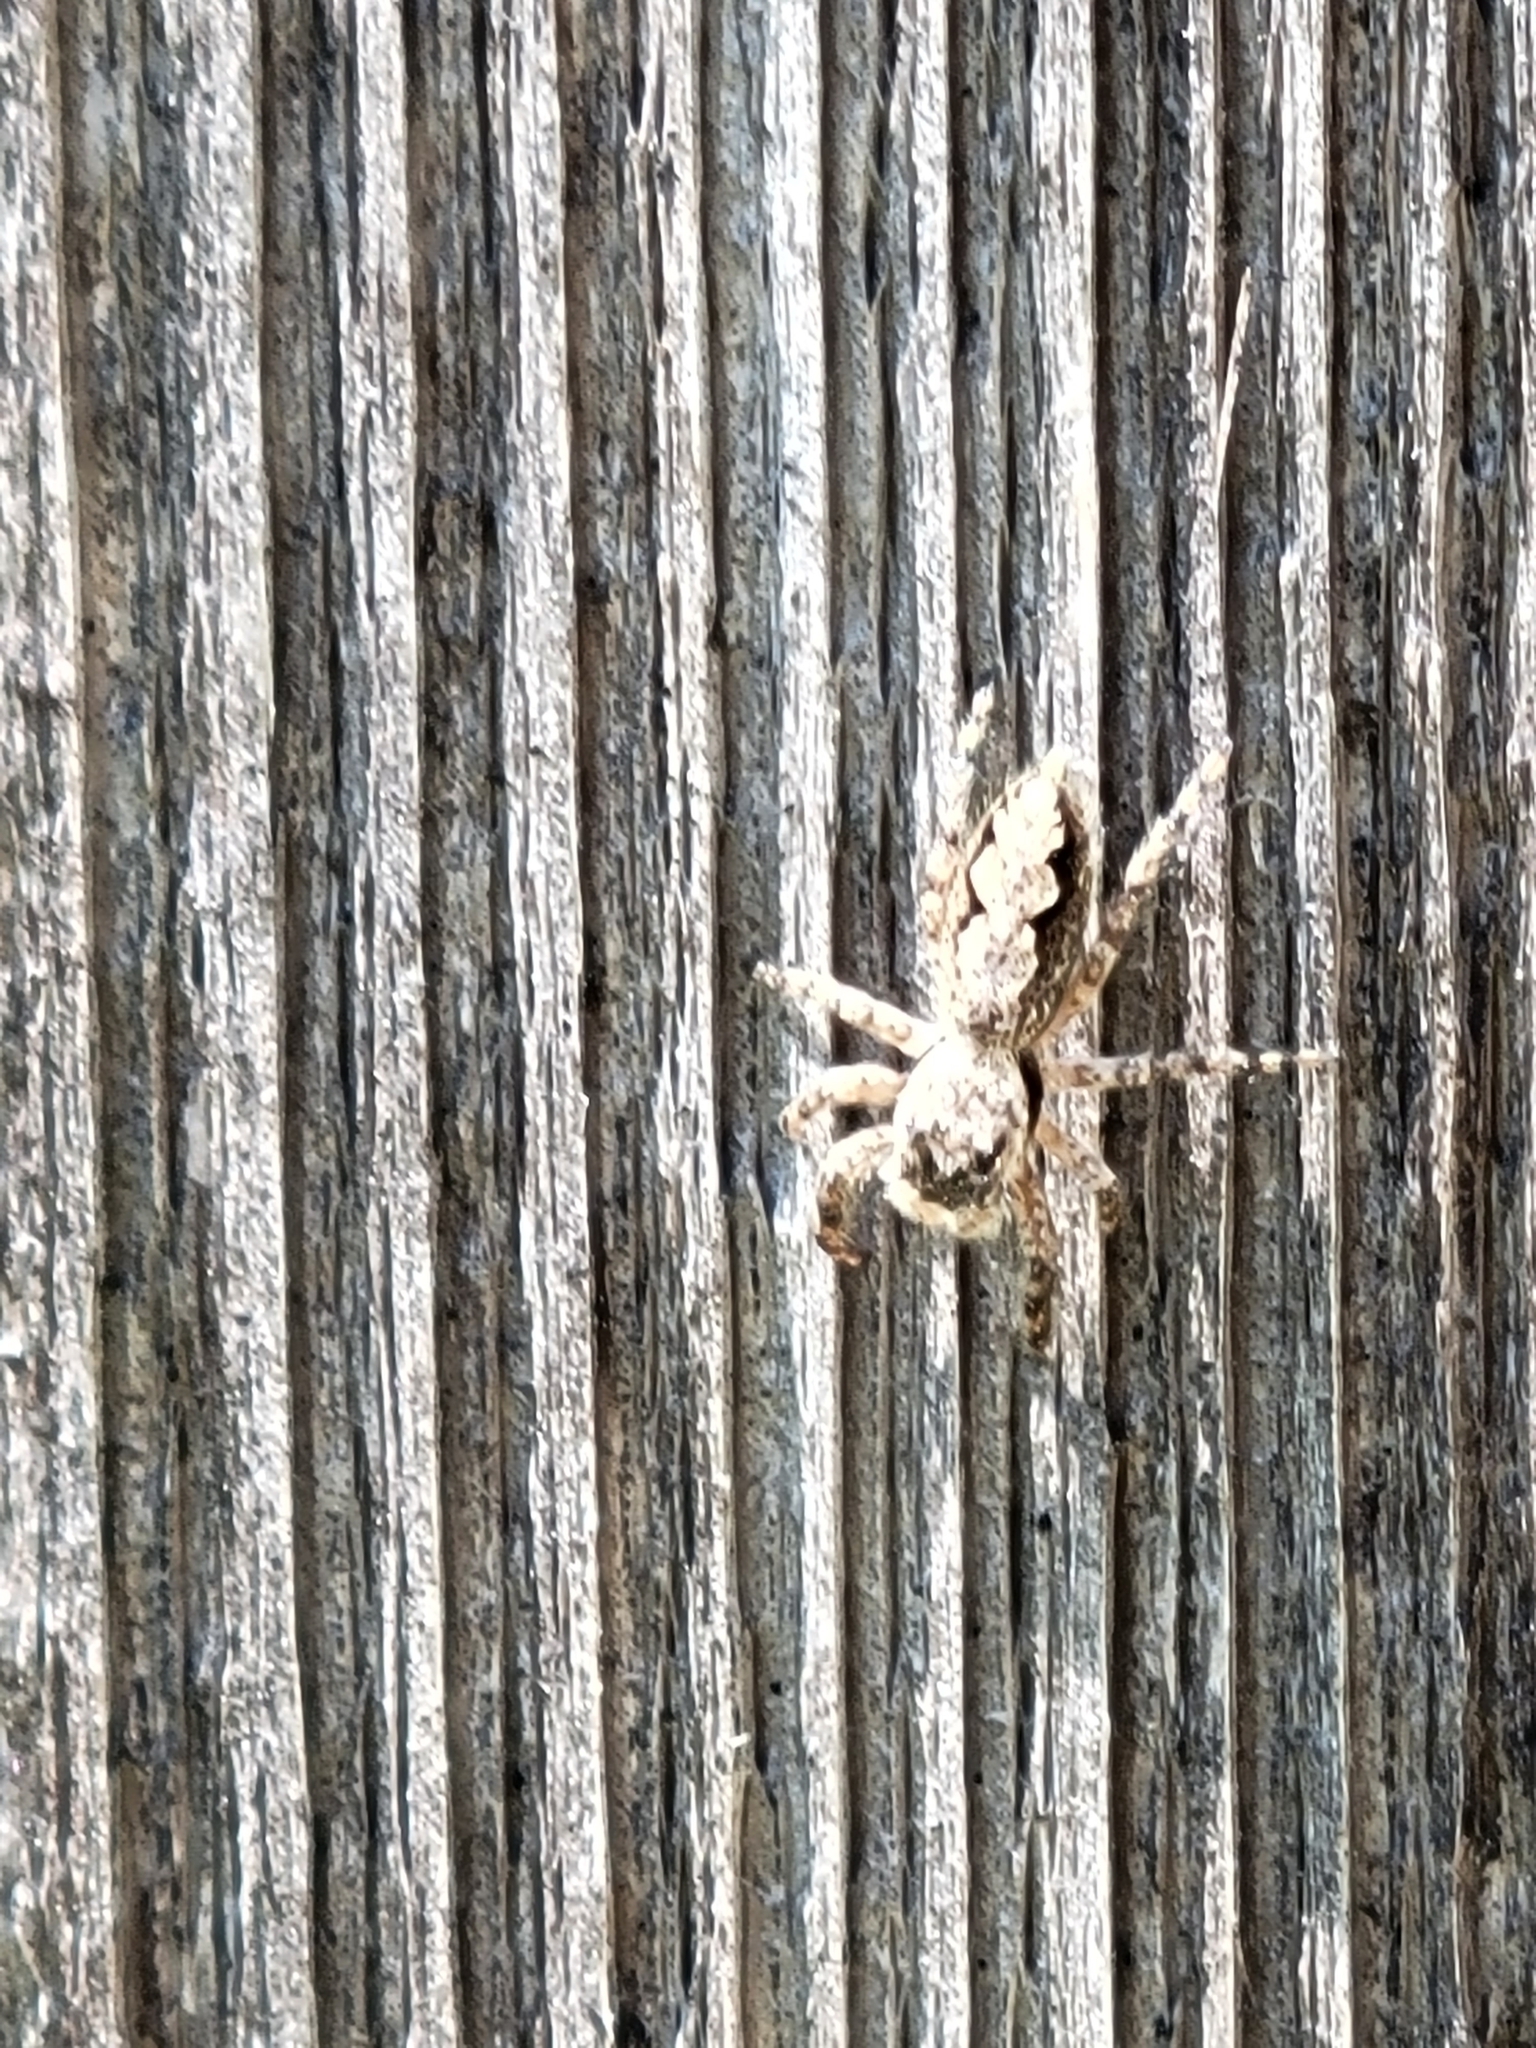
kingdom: Animalia
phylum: Arthropoda
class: Arachnida
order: Araneae
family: Salticidae
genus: Platycryptus
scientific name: Platycryptus undatus
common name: Tan jumping spider
